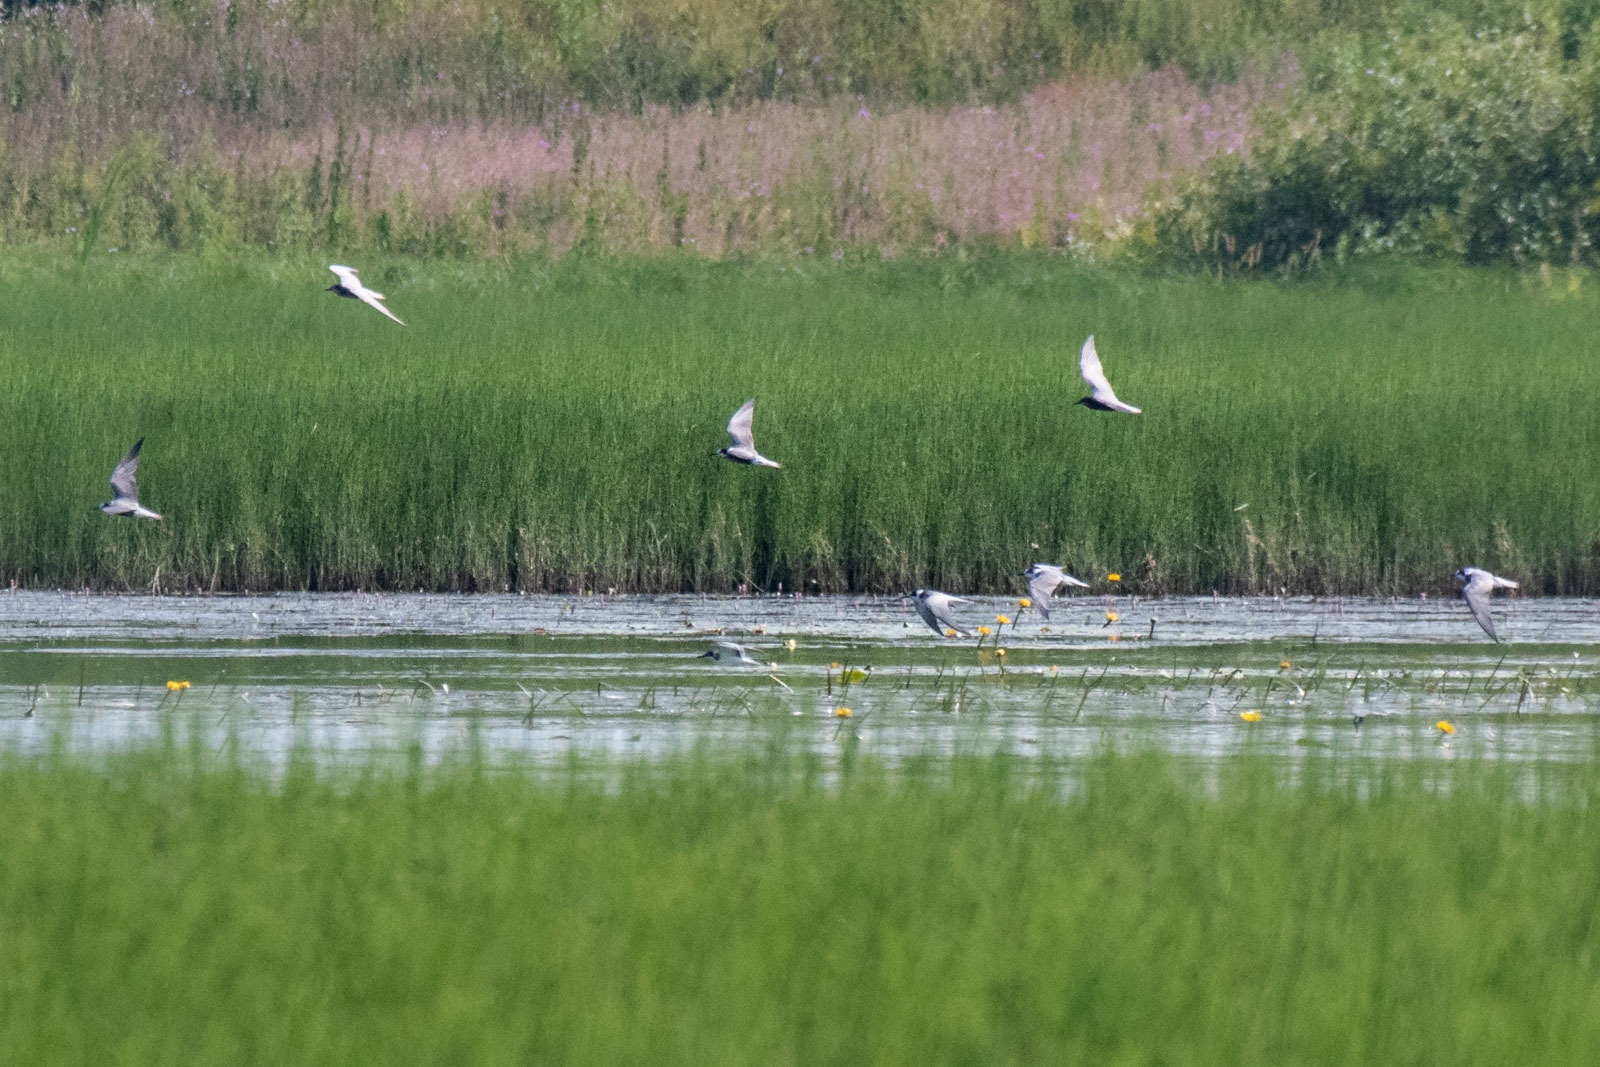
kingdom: Animalia
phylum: Chordata
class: Aves
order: Charadriiformes
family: Laridae
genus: Chlidonias
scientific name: Chlidonias niger
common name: Black tern
